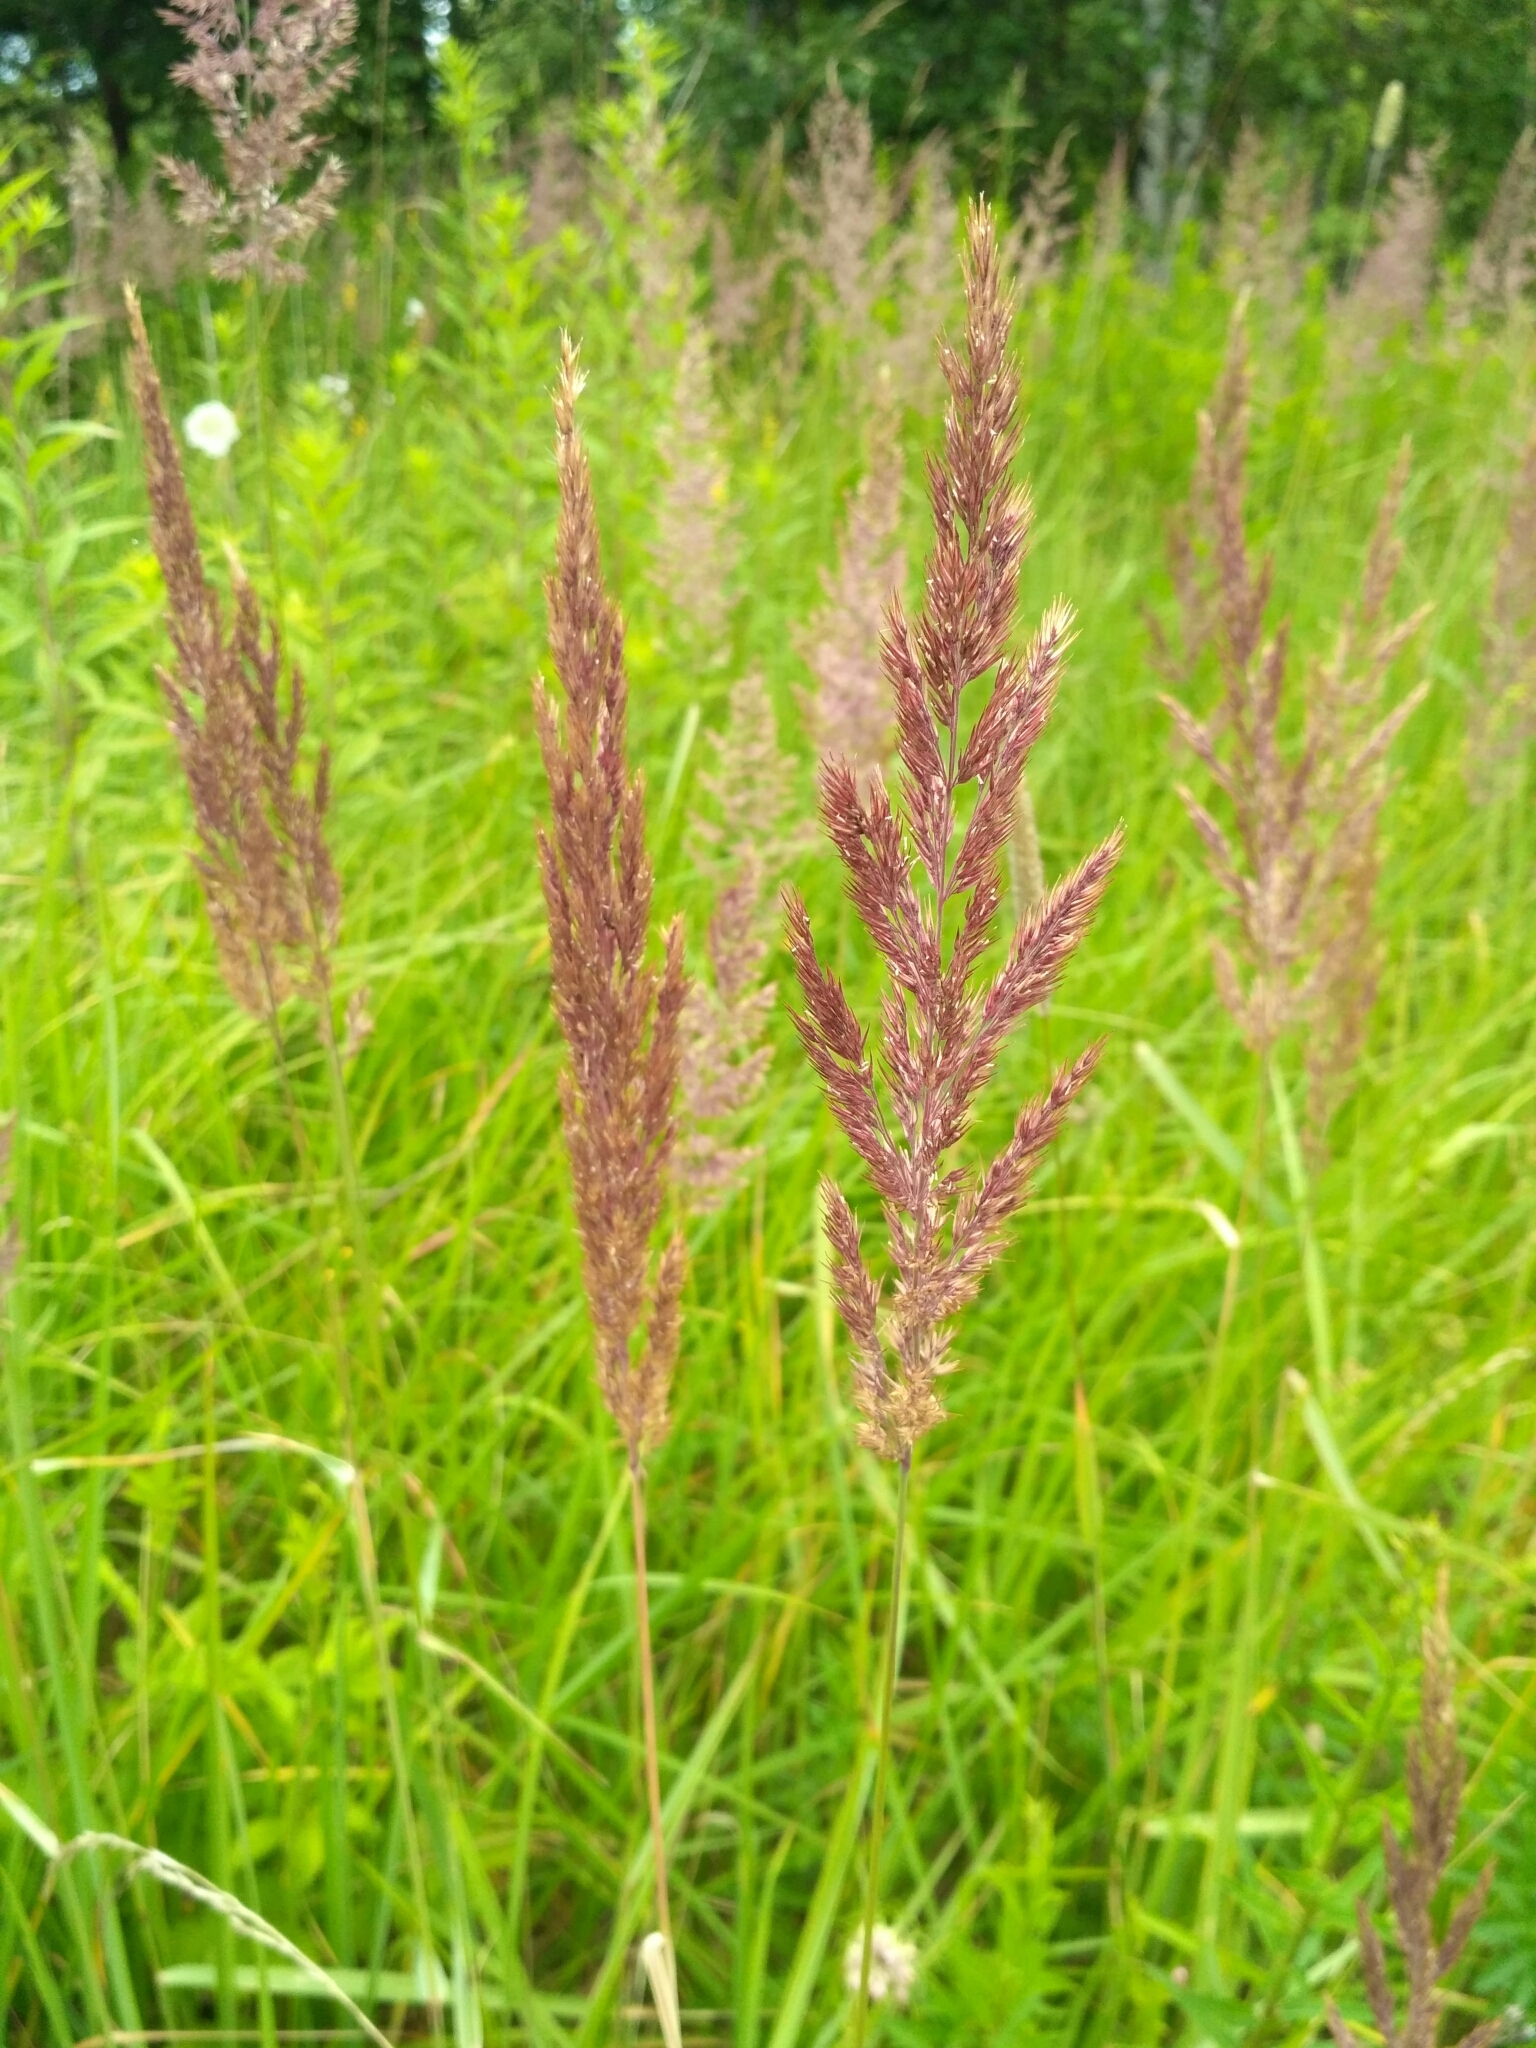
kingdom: Plantae
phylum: Tracheophyta
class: Liliopsida
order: Poales
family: Poaceae
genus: Calamagrostis
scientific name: Calamagrostis epigejos
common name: Wood small-reed
